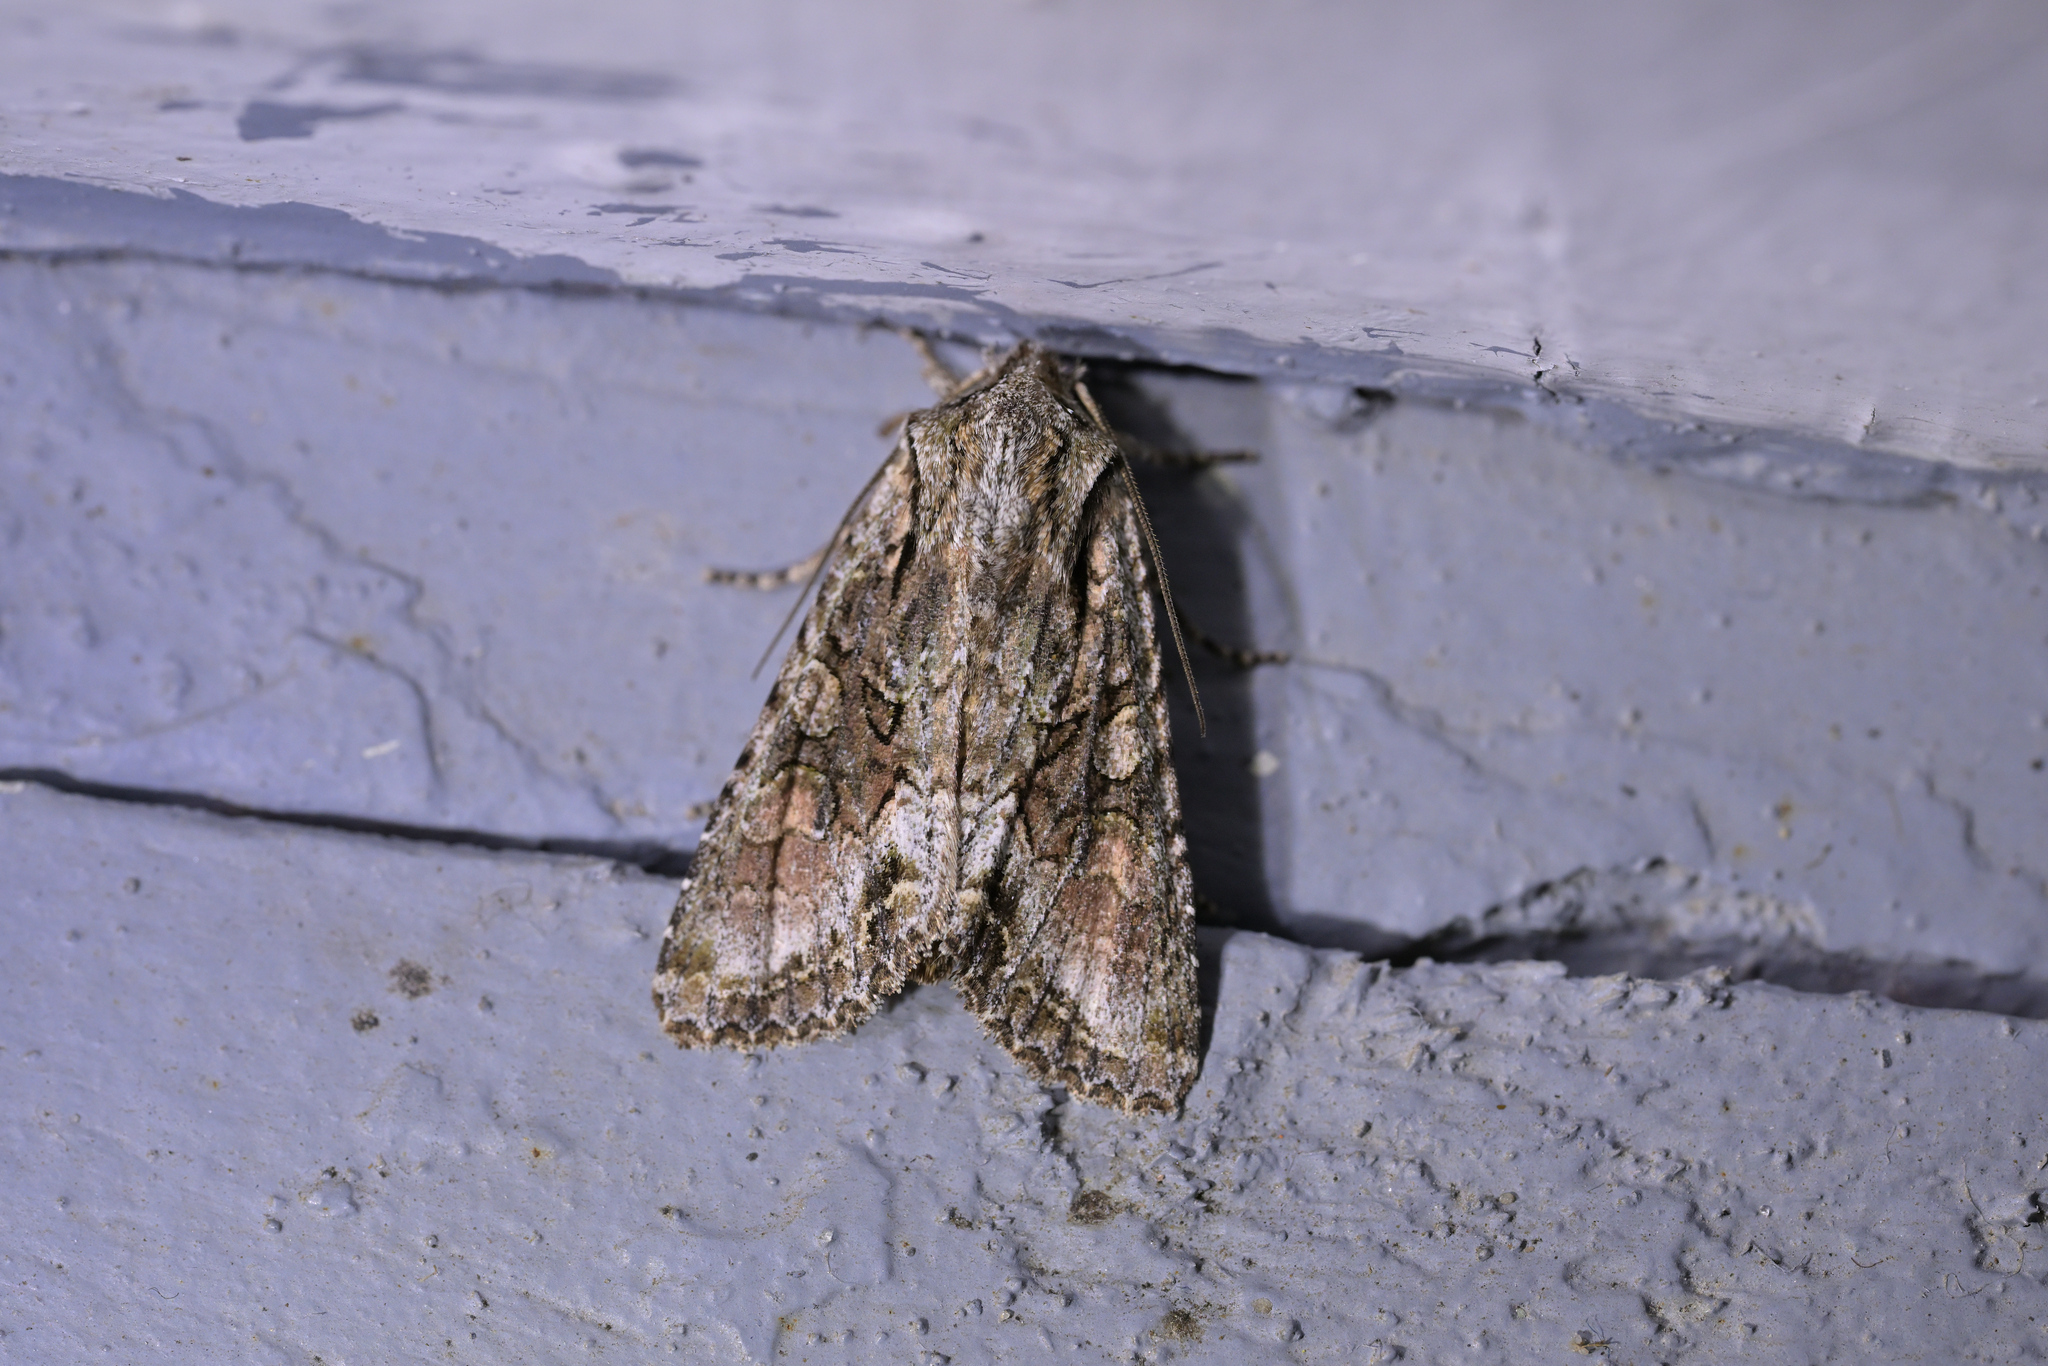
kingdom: Animalia
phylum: Arthropoda
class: Insecta
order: Lepidoptera
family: Noctuidae
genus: Ichneutica
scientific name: Ichneutica mutans
